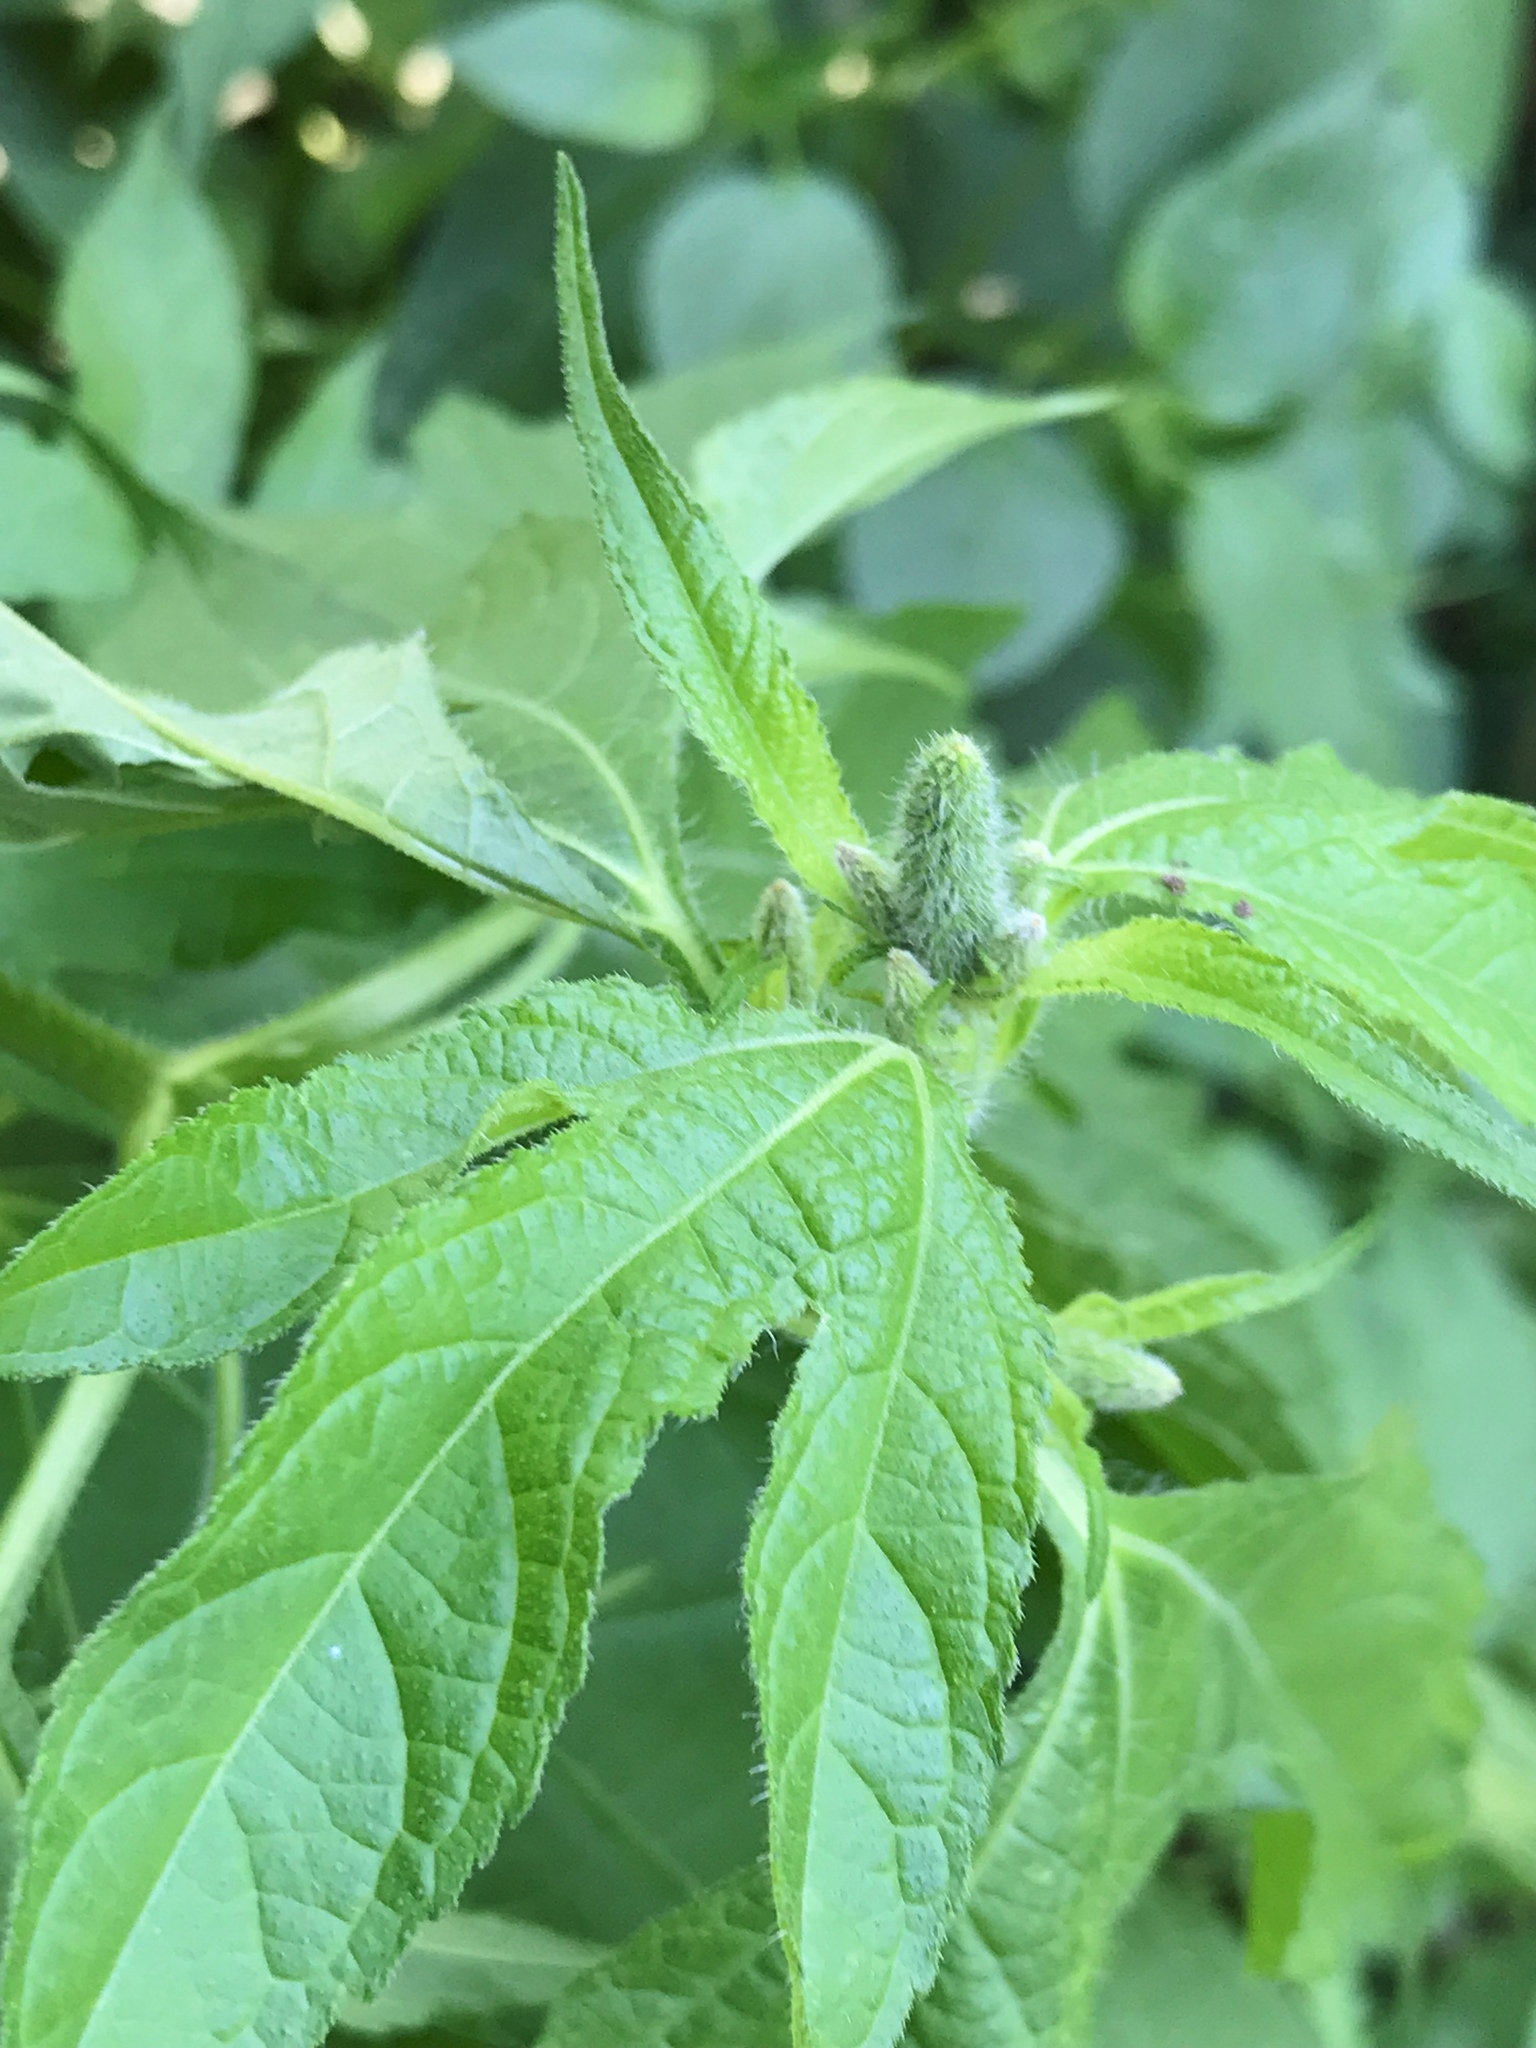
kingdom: Plantae
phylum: Tracheophyta
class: Magnoliopsida
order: Asterales
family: Asteraceae
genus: Ambrosia
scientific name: Ambrosia trifida
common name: Giant ragweed
